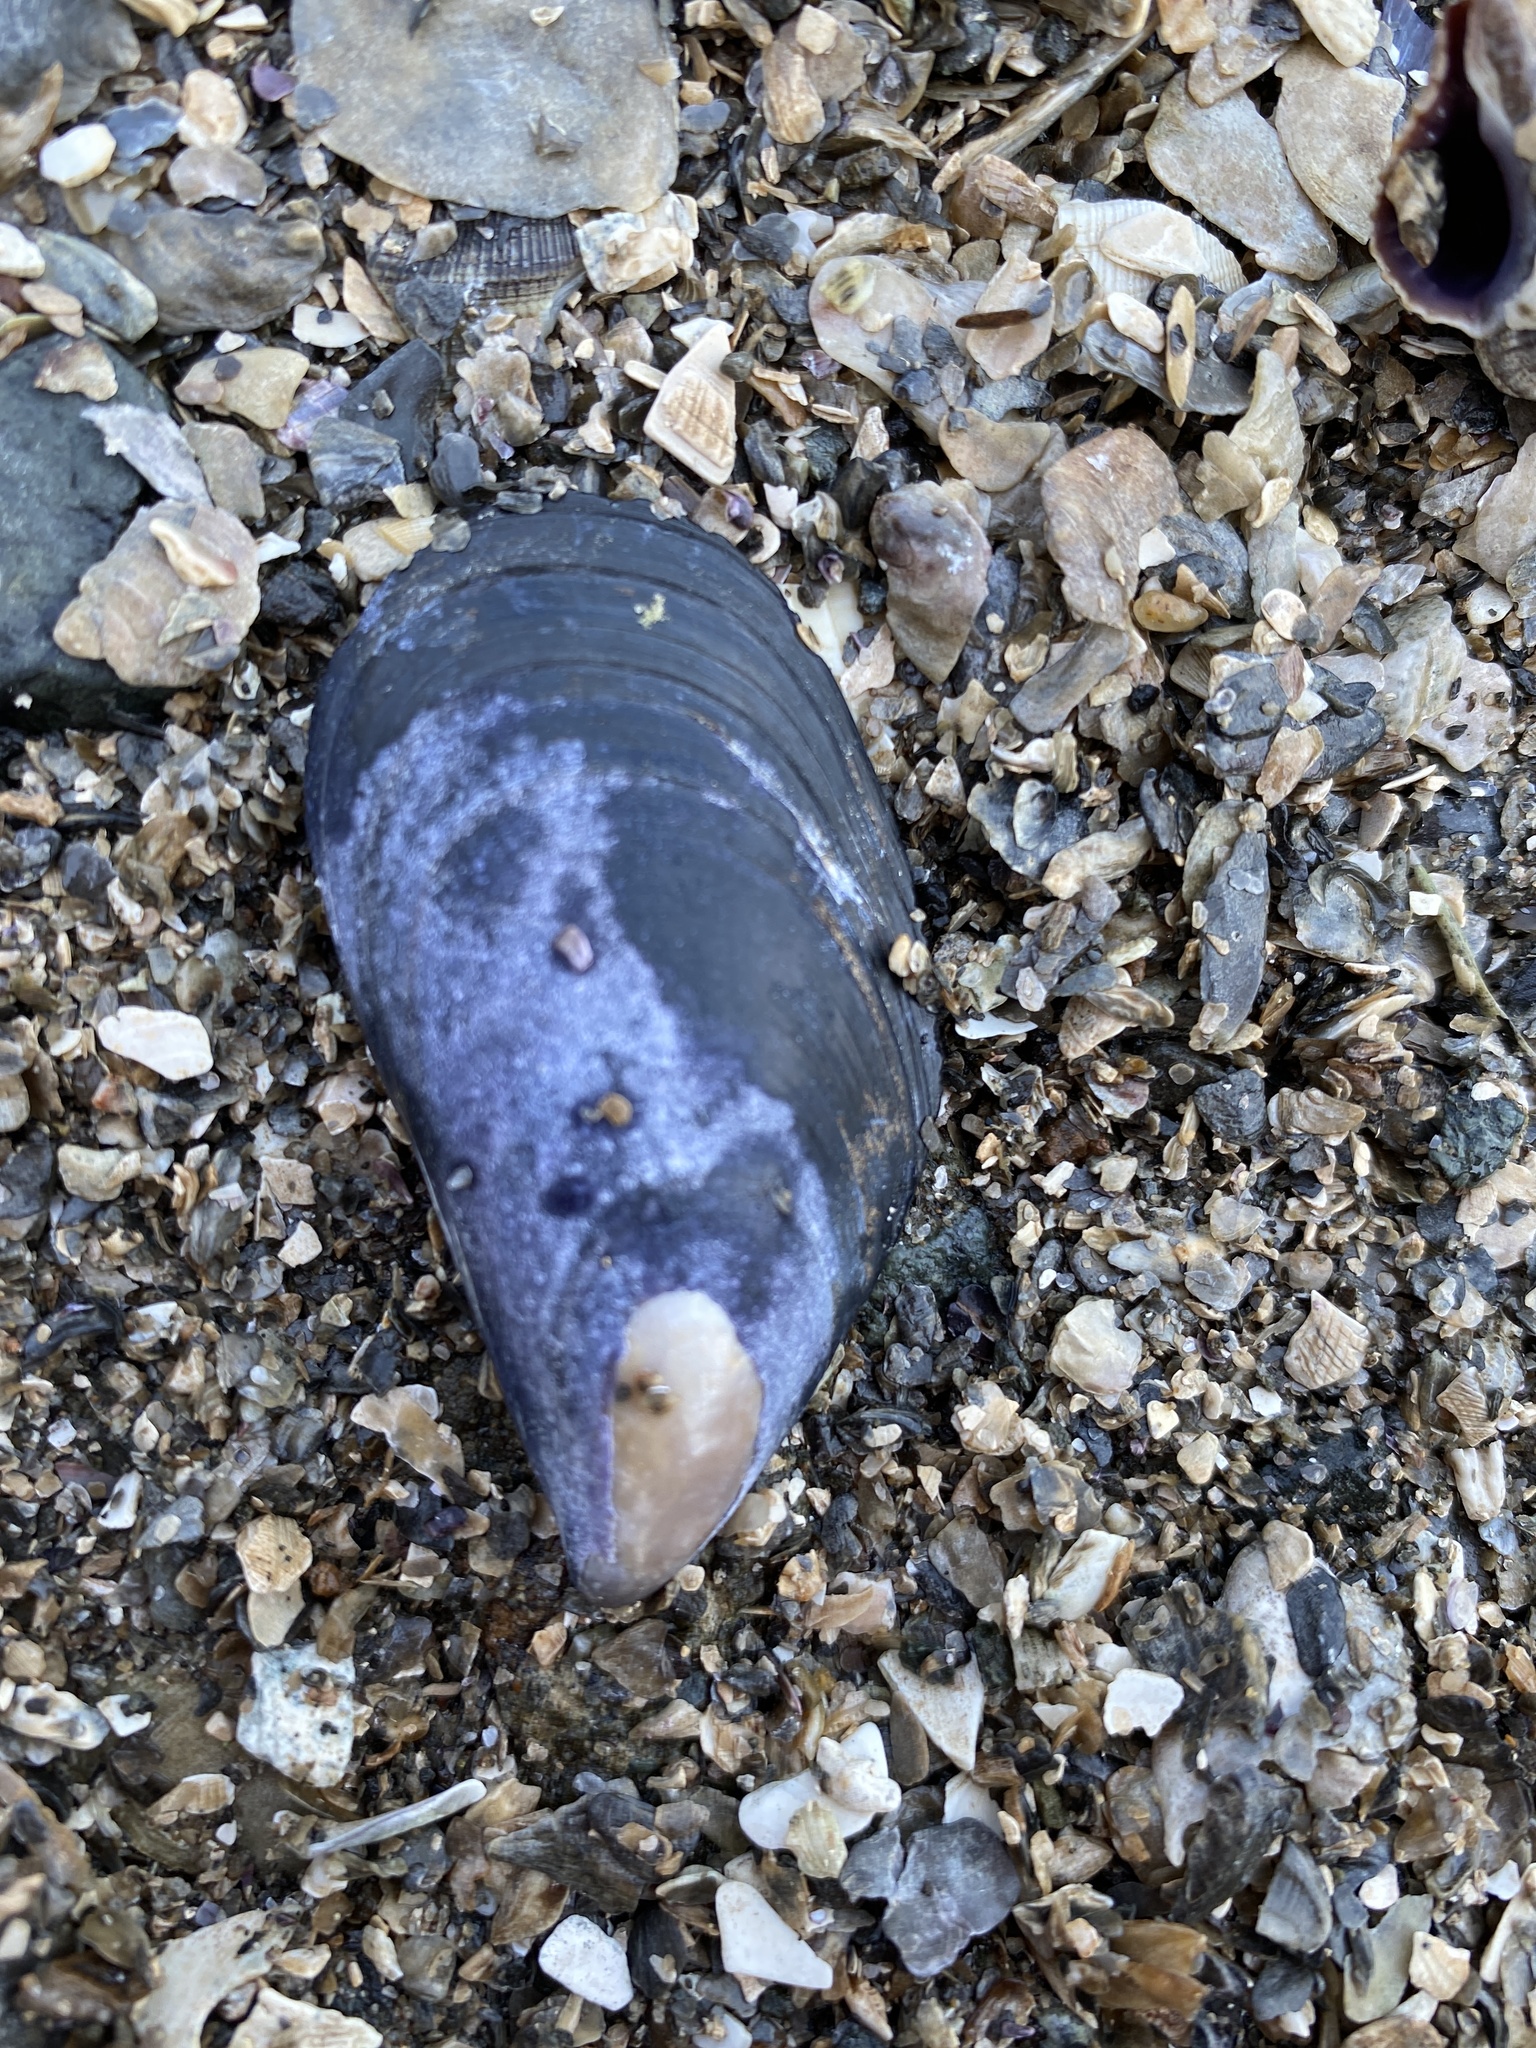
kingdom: Animalia
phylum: Mollusca
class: Bivalvia
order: Mytilida
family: Mytilidae
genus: Mytilus
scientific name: Mytilus
